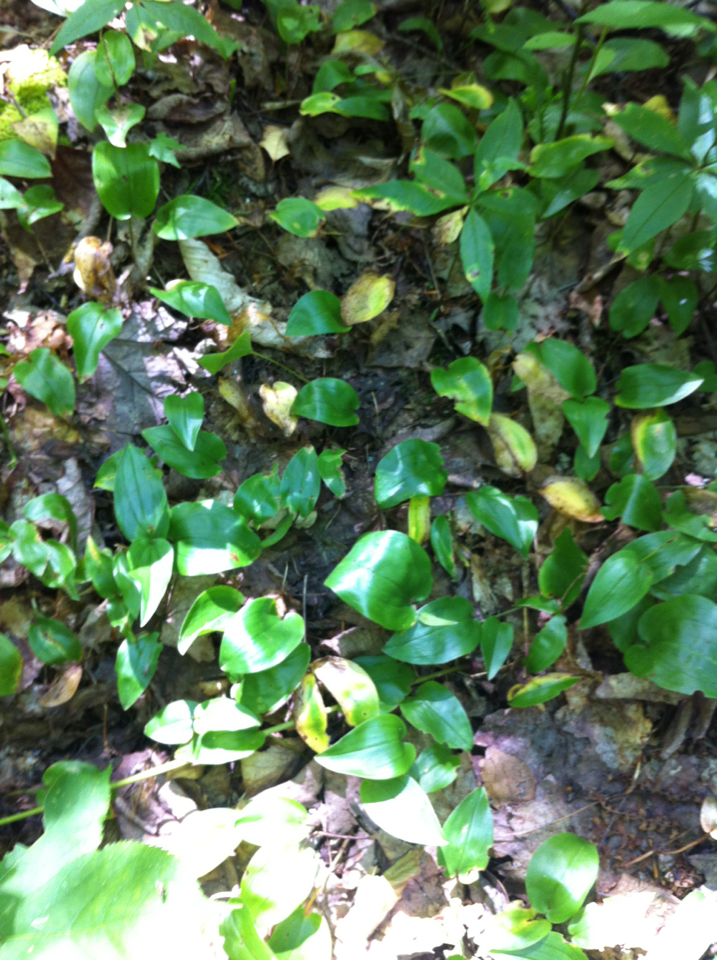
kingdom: Plantae
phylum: Tracheophyta
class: Liliopsida
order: Asparagales
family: Asparagaceae
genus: Maianthemum
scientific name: Maianthemum canadense
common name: False lily-of-the-valley
